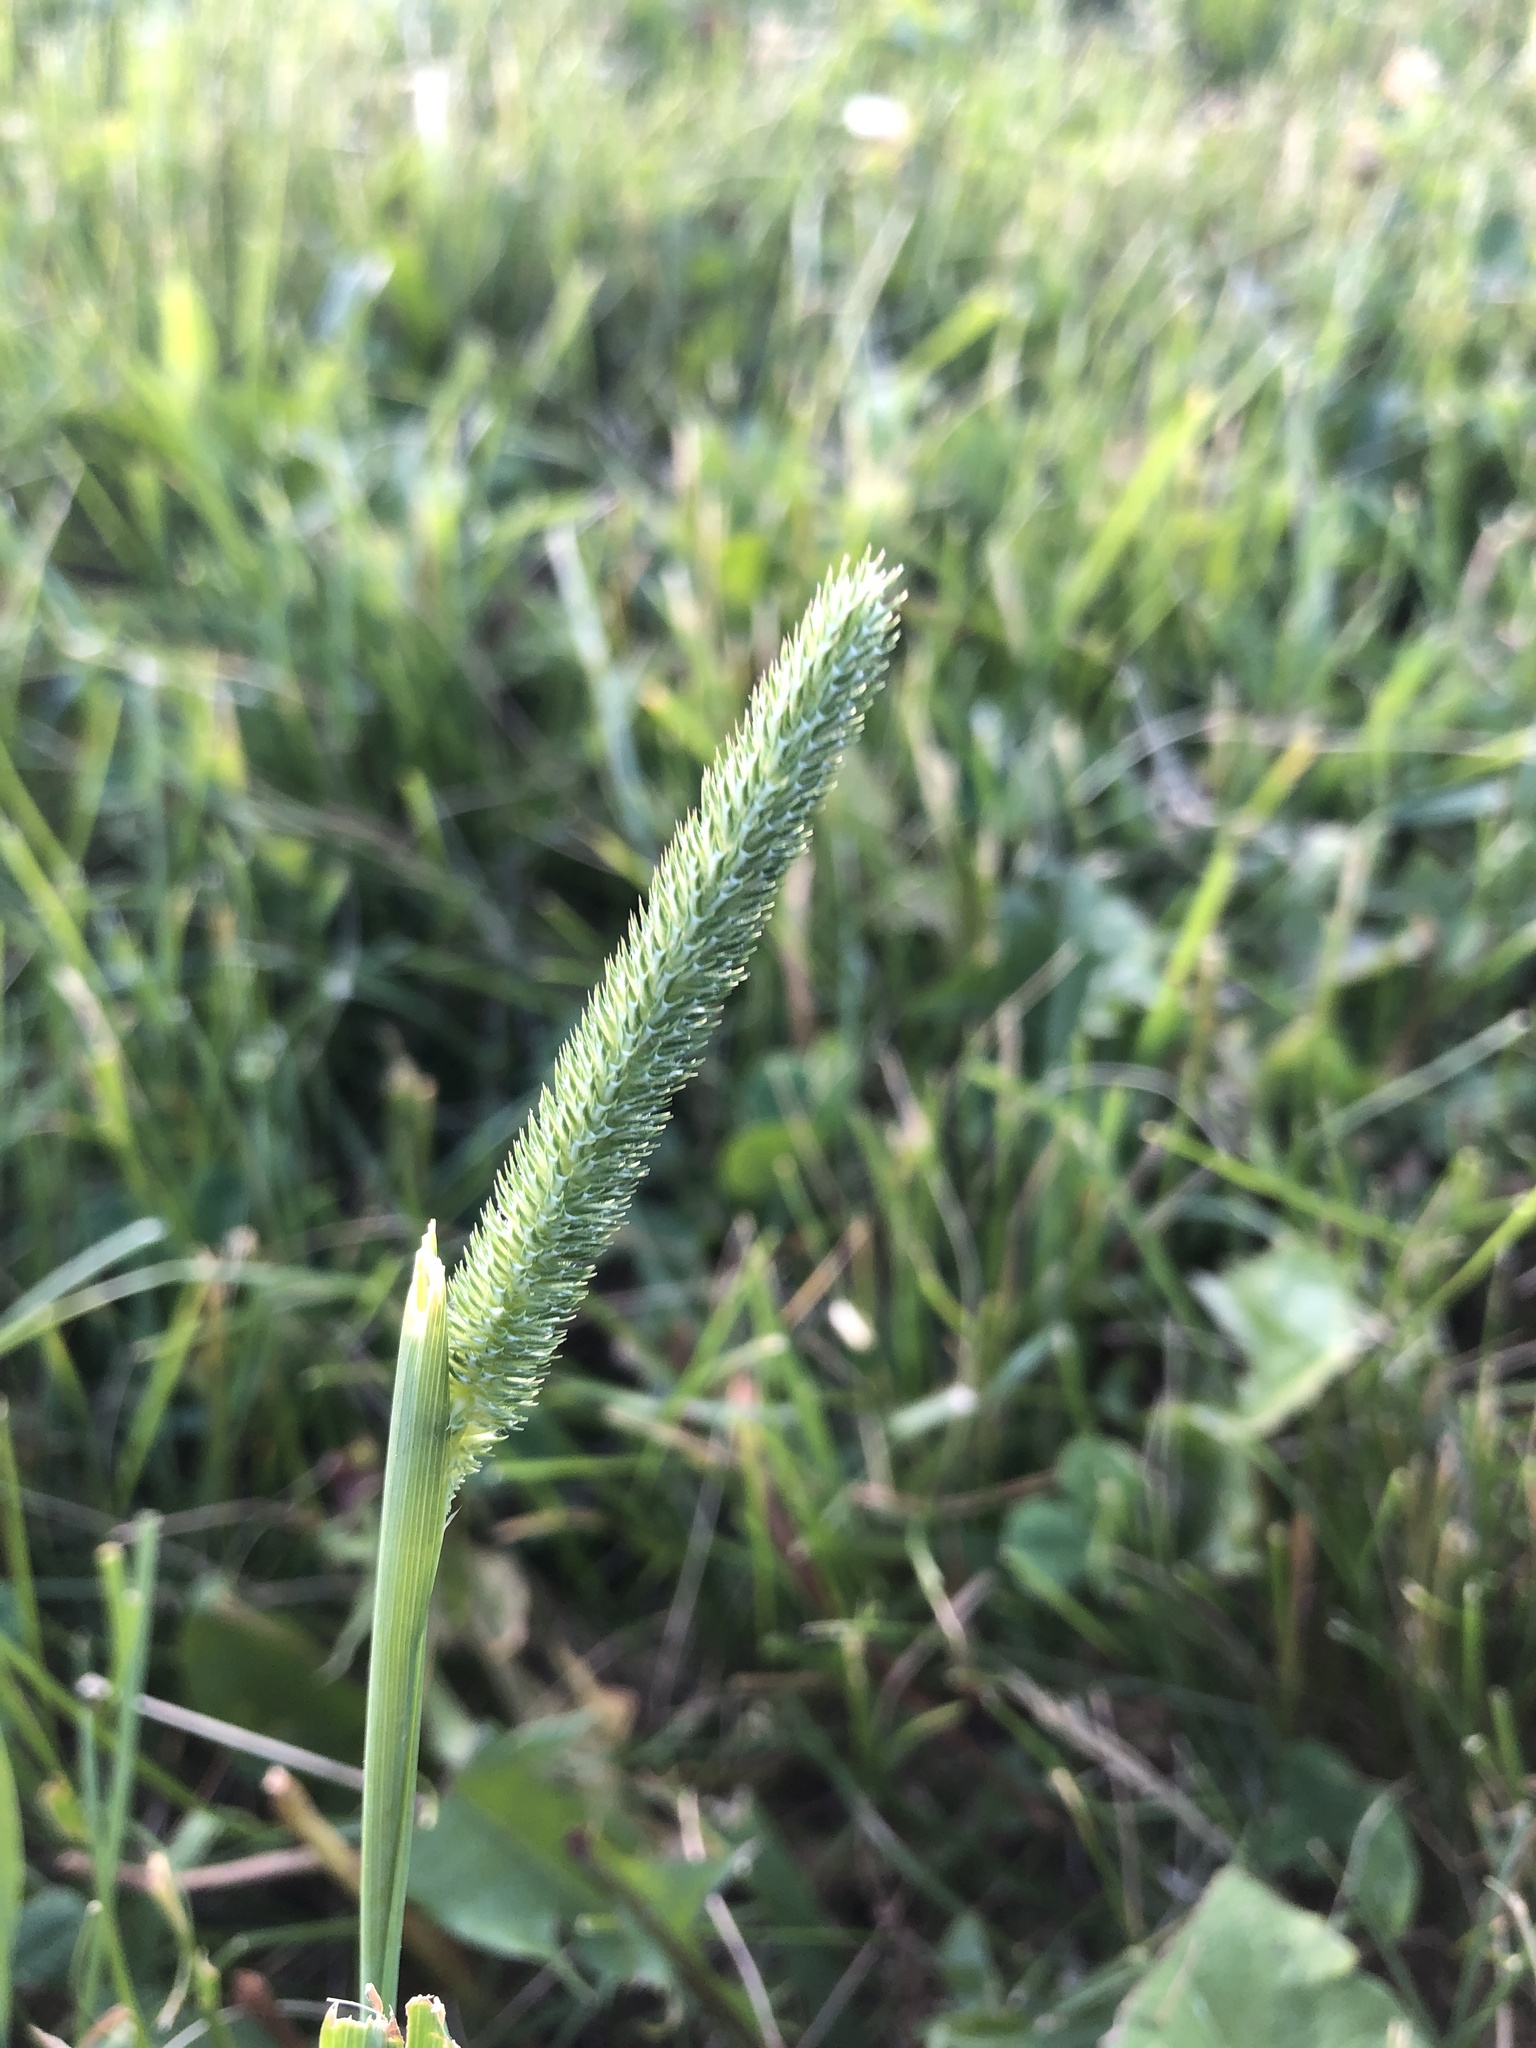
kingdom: Plantae
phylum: Tracheophyta
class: Liliopsida
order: Poales
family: Poaceae
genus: Phleum
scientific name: Phleum pratense
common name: Timothy grass
